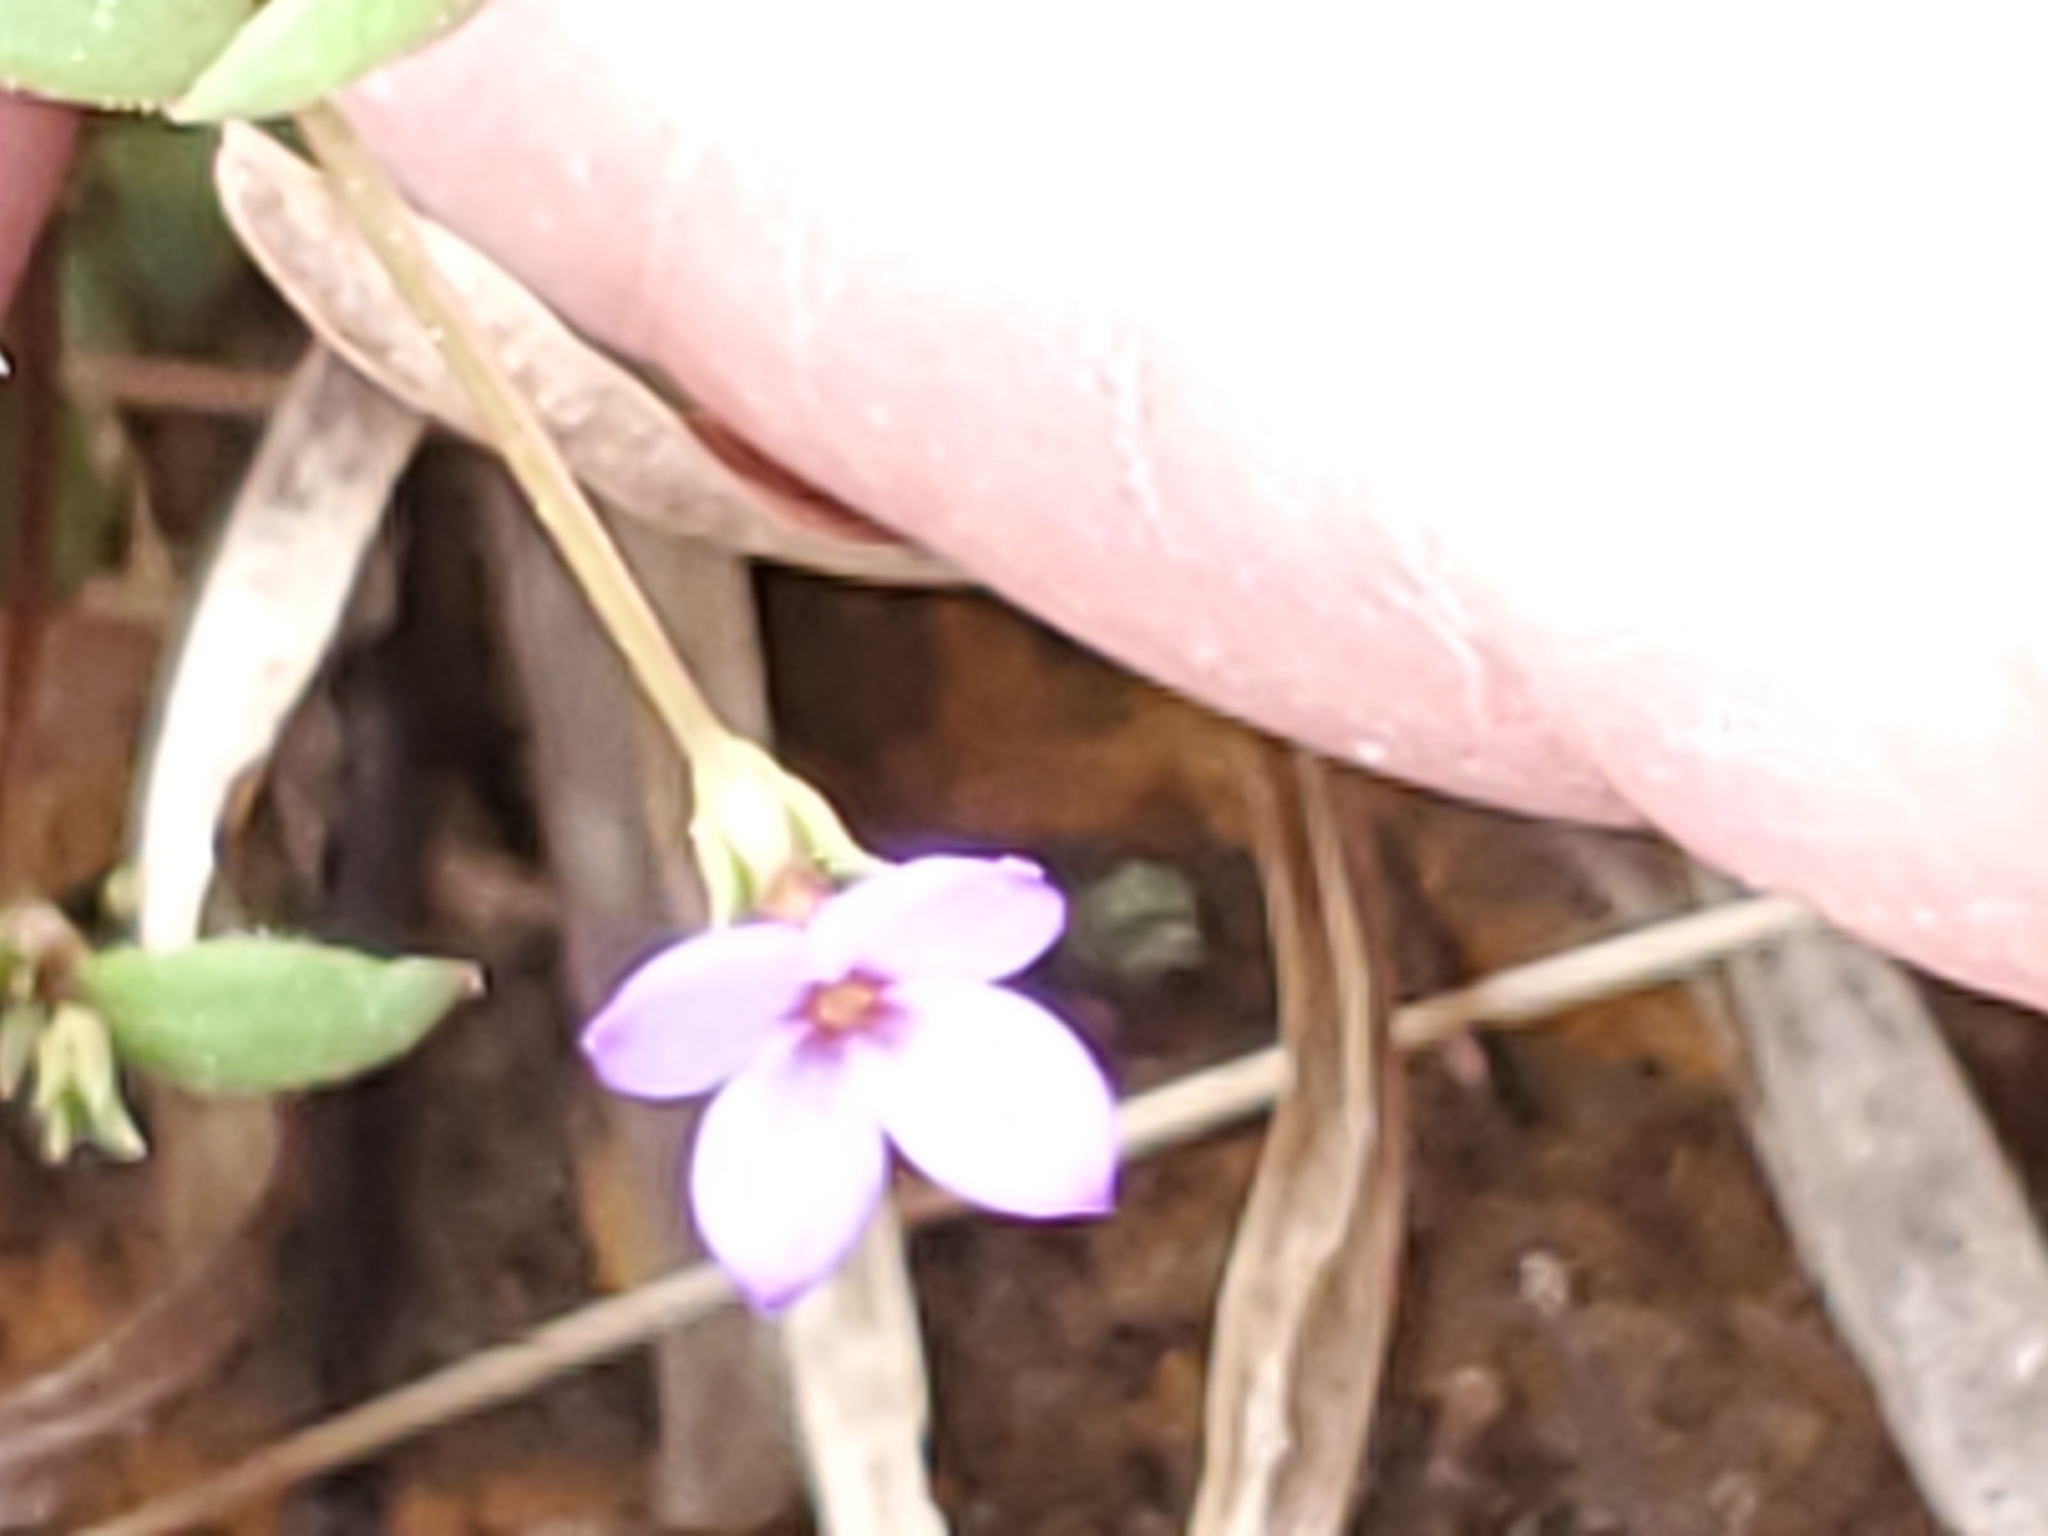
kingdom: Plantae
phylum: Tracheophyta
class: Magnoliopsida
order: Gentianales
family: Rubiaceae
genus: Houstonia
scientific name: Houstonia pusilla
